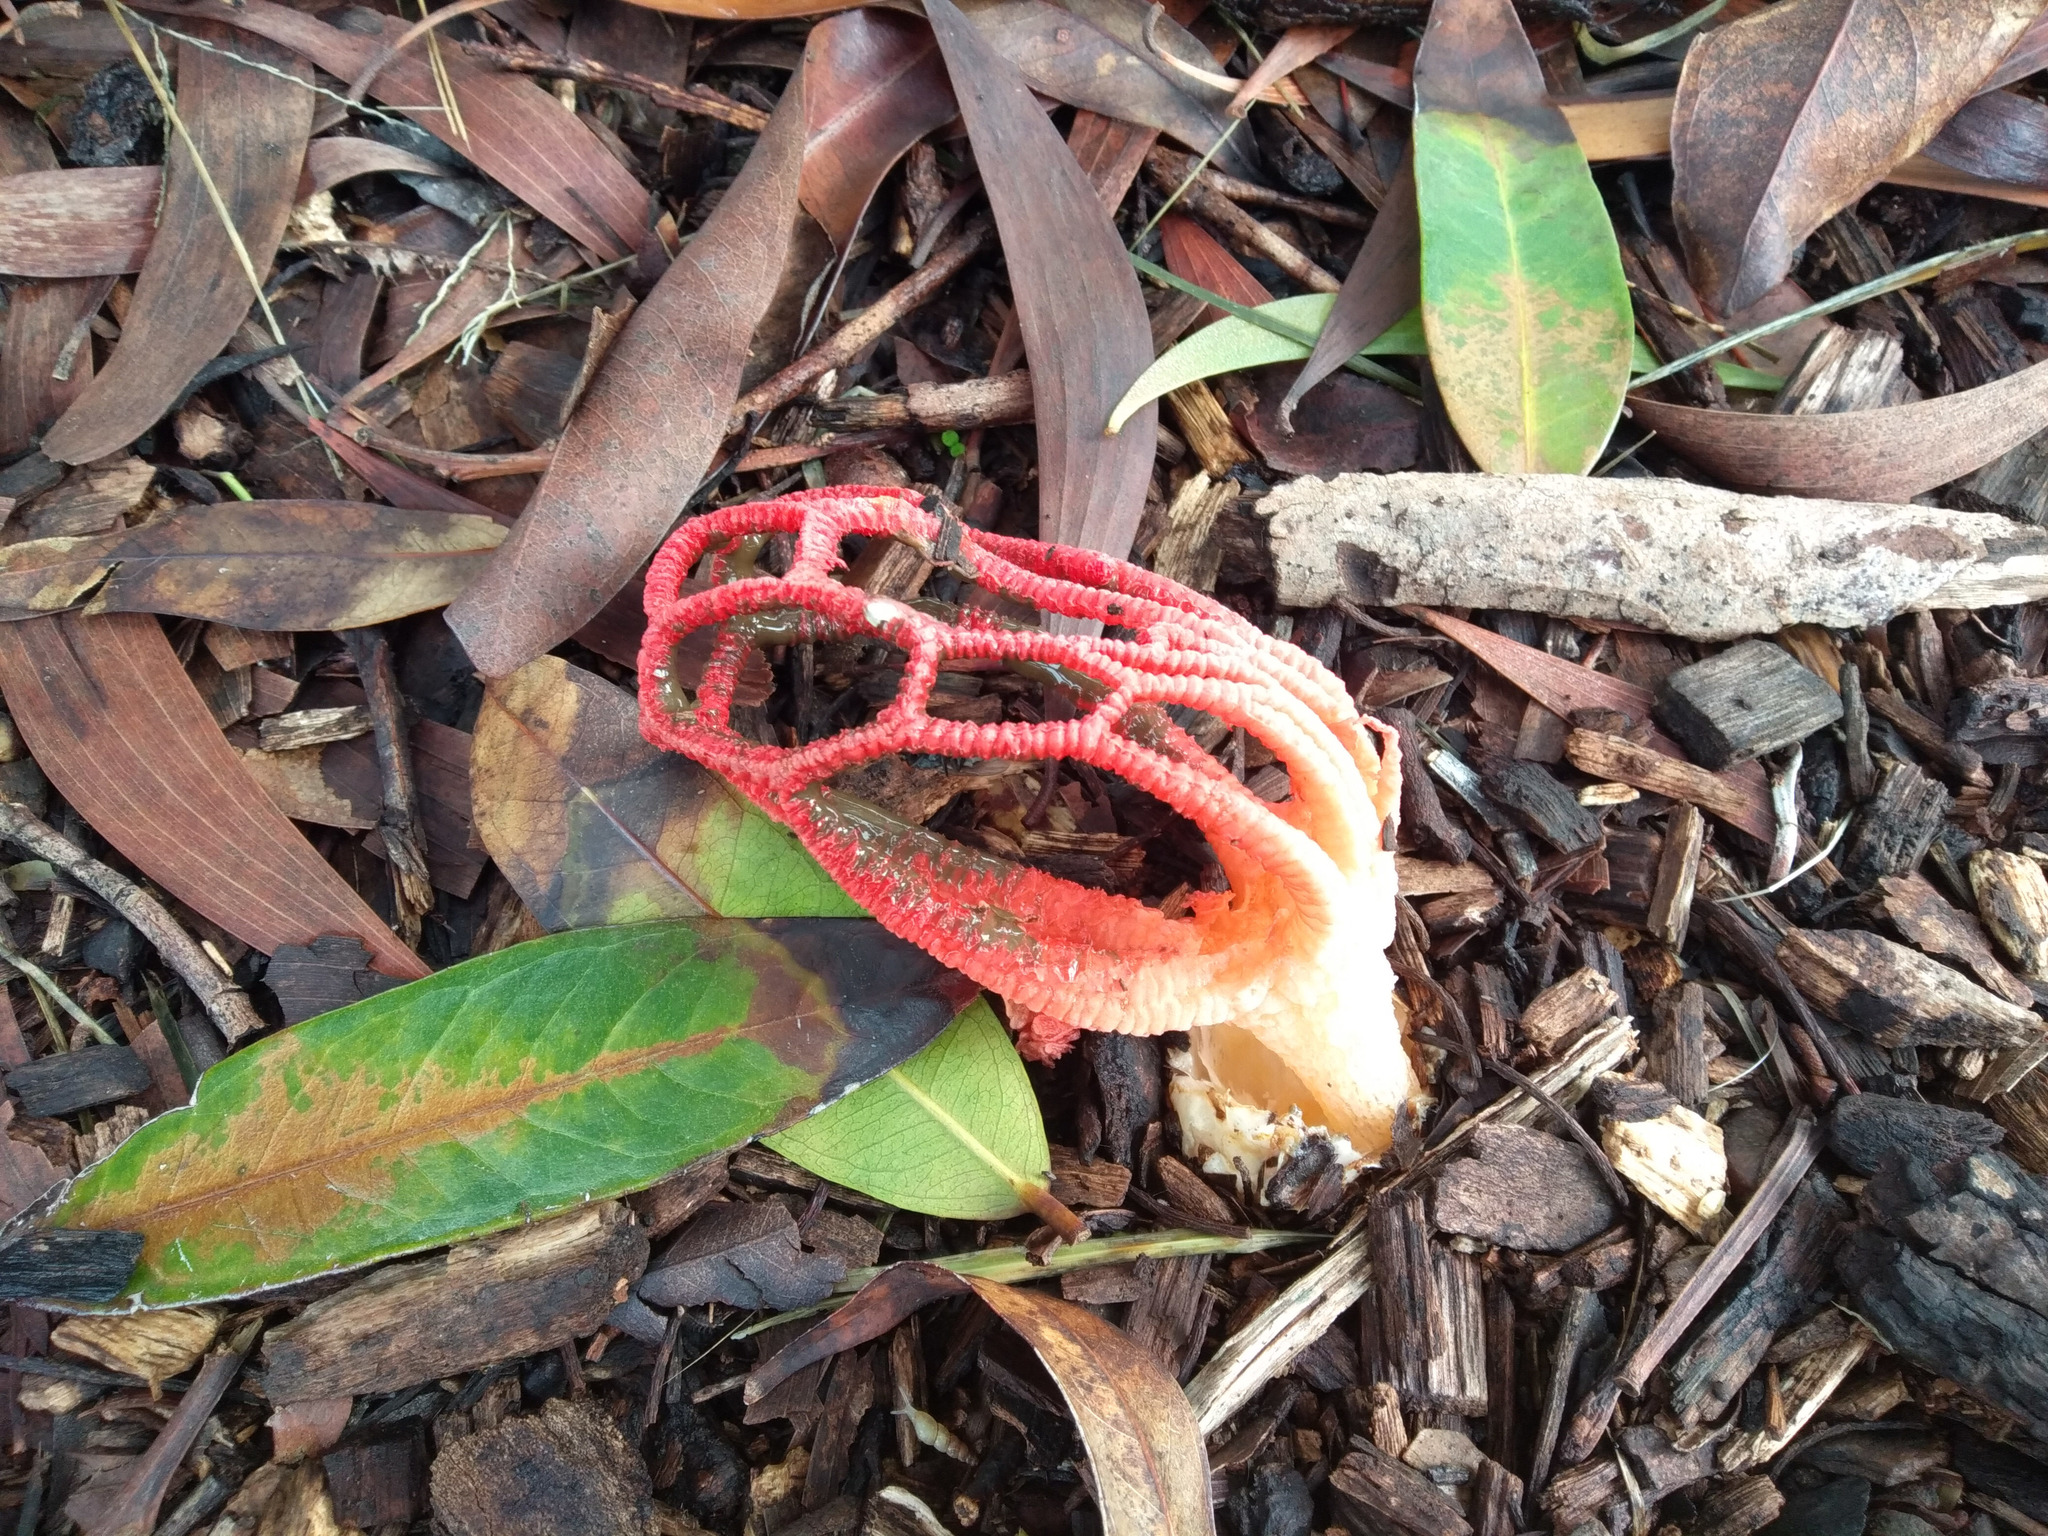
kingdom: Fungi
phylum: Basidiomycota
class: Agaricomycetes
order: Phallales
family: Phallaceae
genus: Colus
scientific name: Colus pusillus
